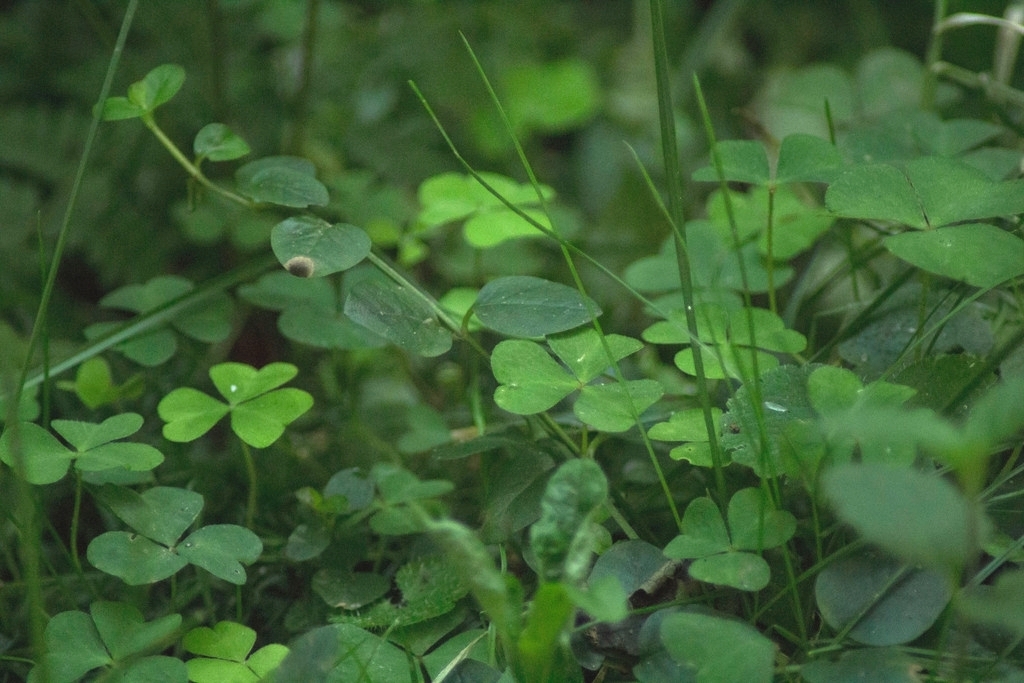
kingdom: Plantae
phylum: Tracheophyta
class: Magnoliopsida
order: Oxalidales
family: Oxalidaceae
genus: Oxalis
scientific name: Oxalis acetosella
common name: Wood-sorrel
